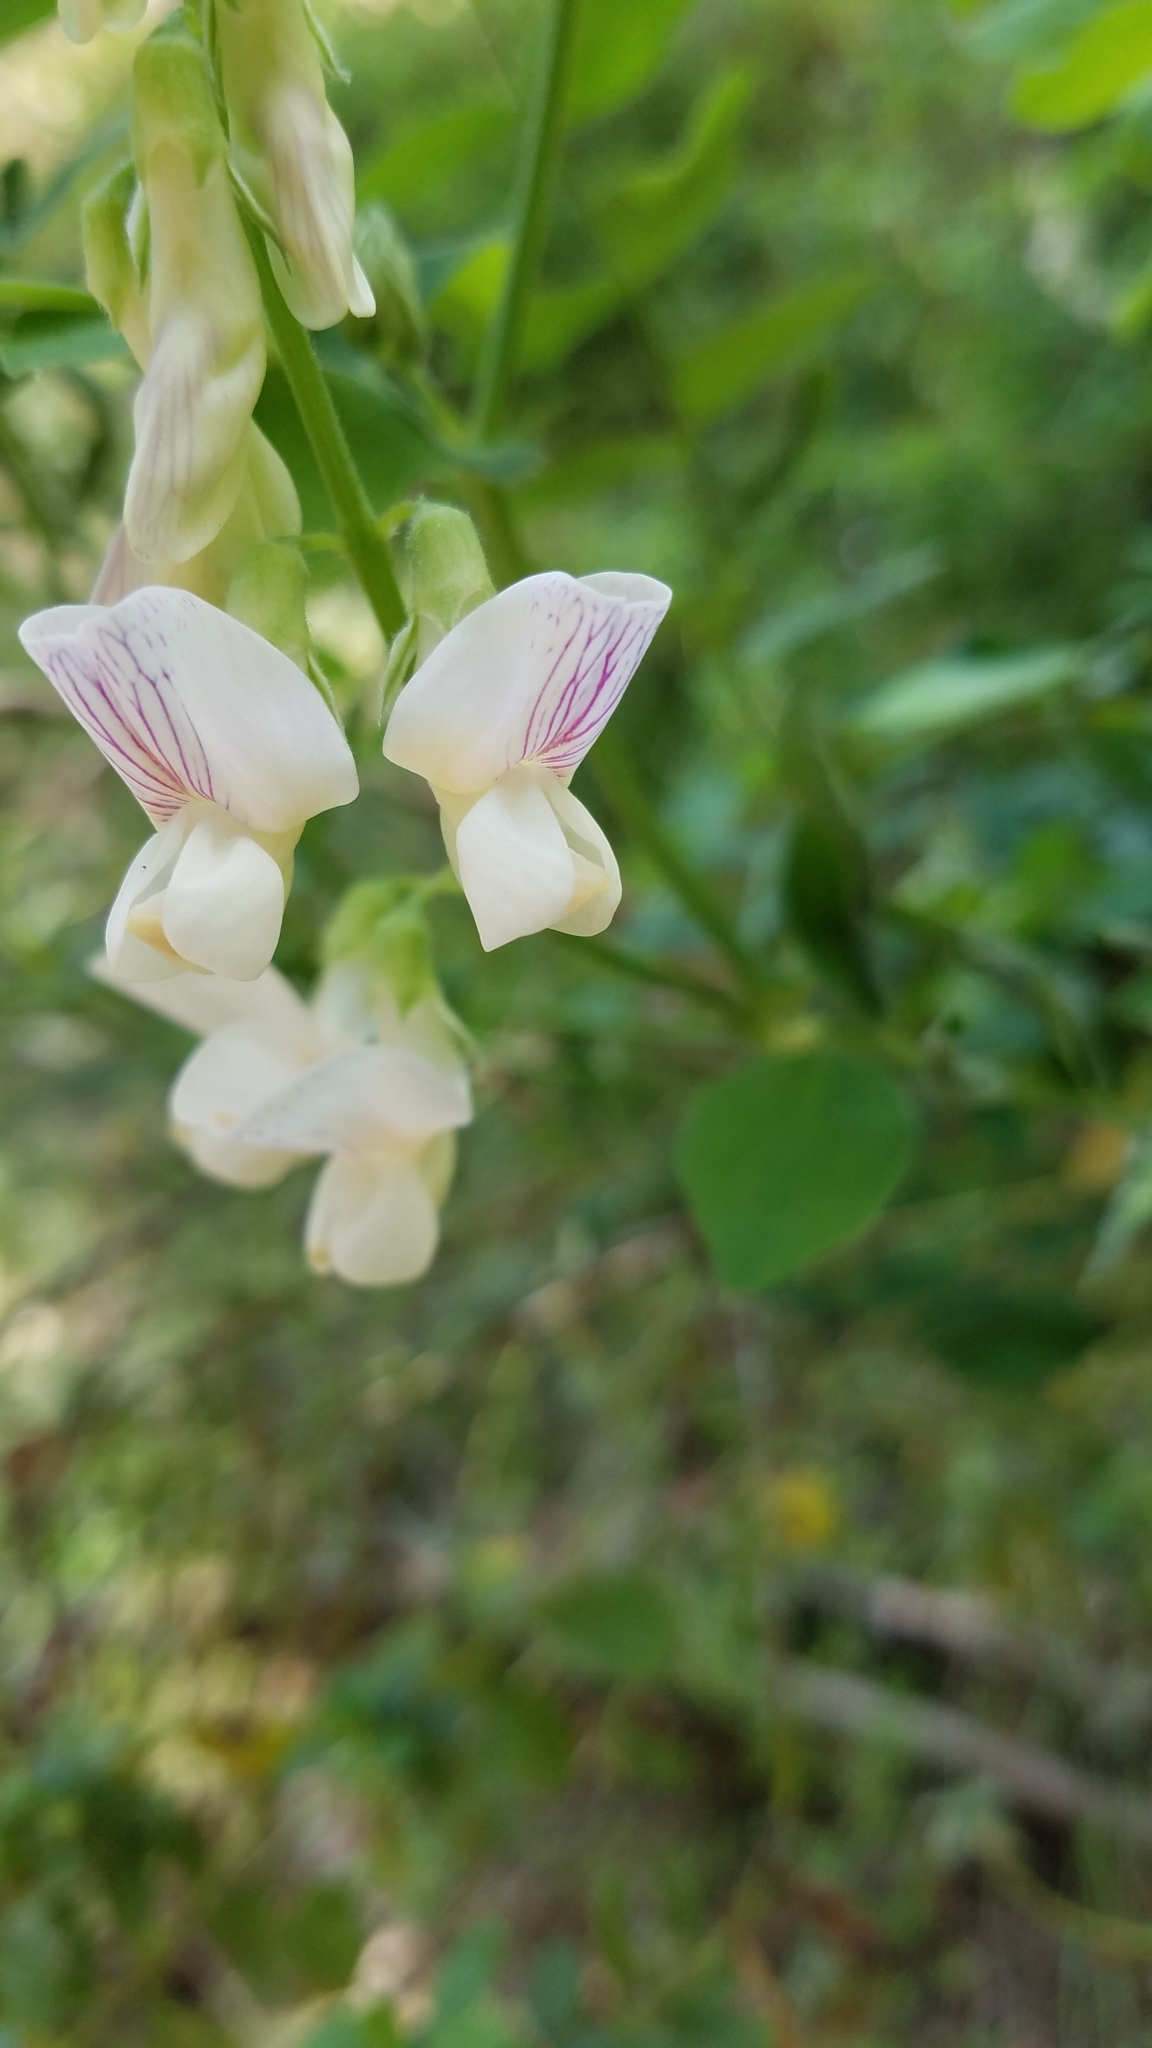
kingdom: Plantae
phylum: Tracheophyta
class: Magnoliopsida
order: Fabales
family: Fabaceae
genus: Lathyrus
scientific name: Lathyrus vestitus
